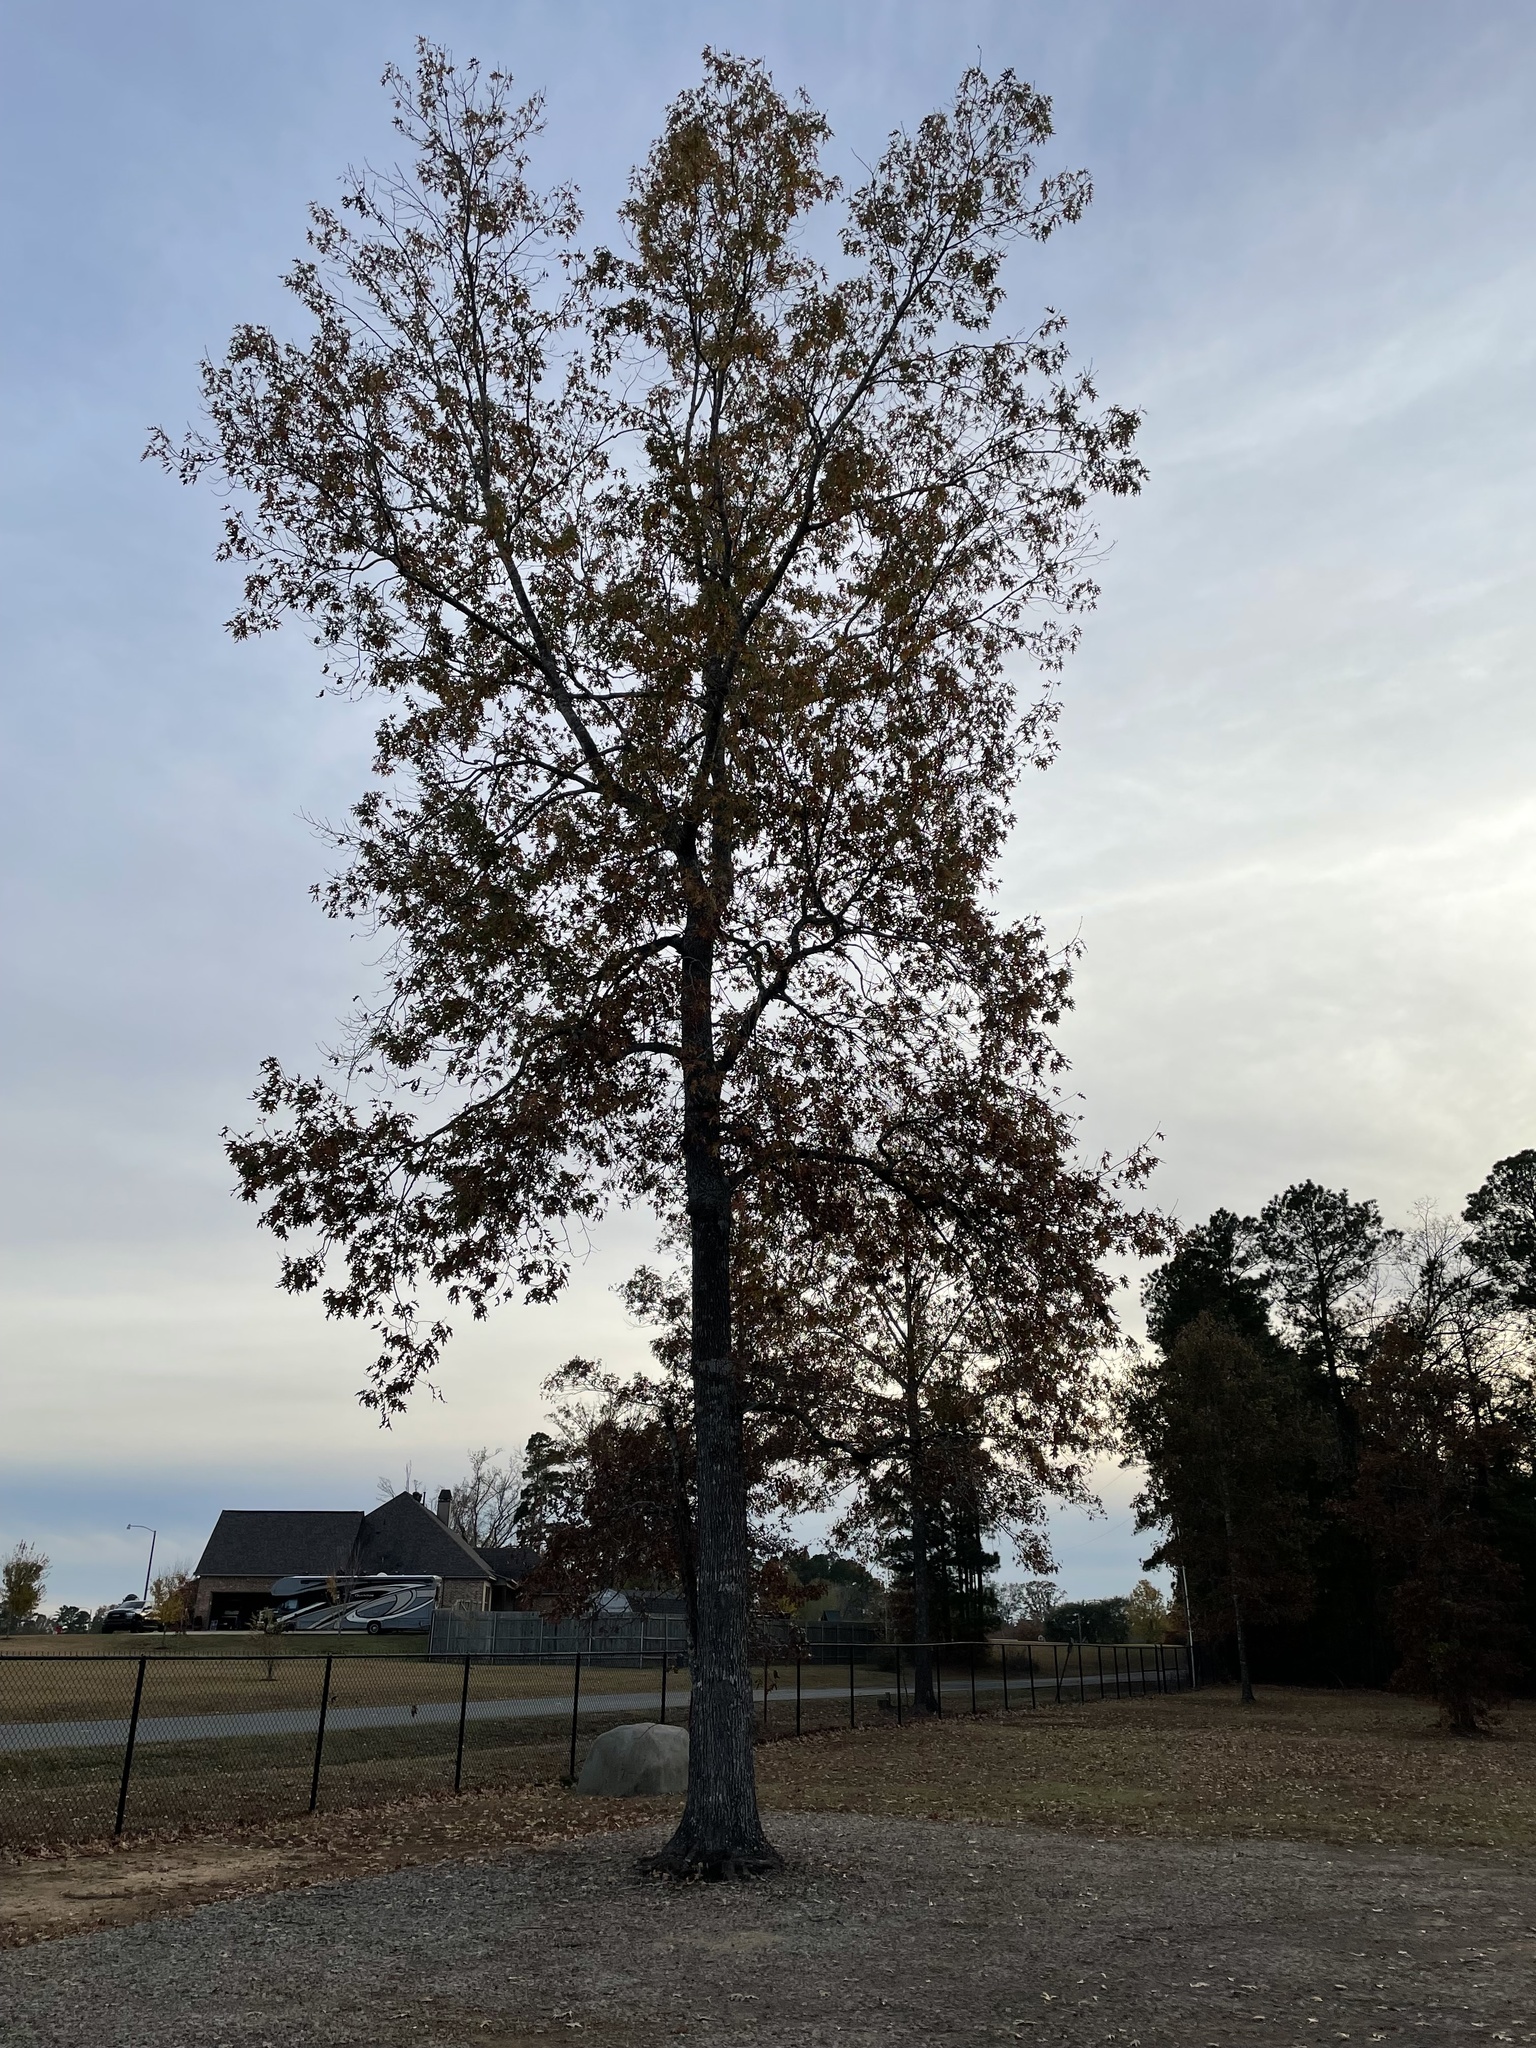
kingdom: Plantae
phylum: Tracheophyta
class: Magnoliopsida
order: Fagales
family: Fagaceae
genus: Quercus
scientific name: Quercus pagoda
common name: Cherrybark oak
